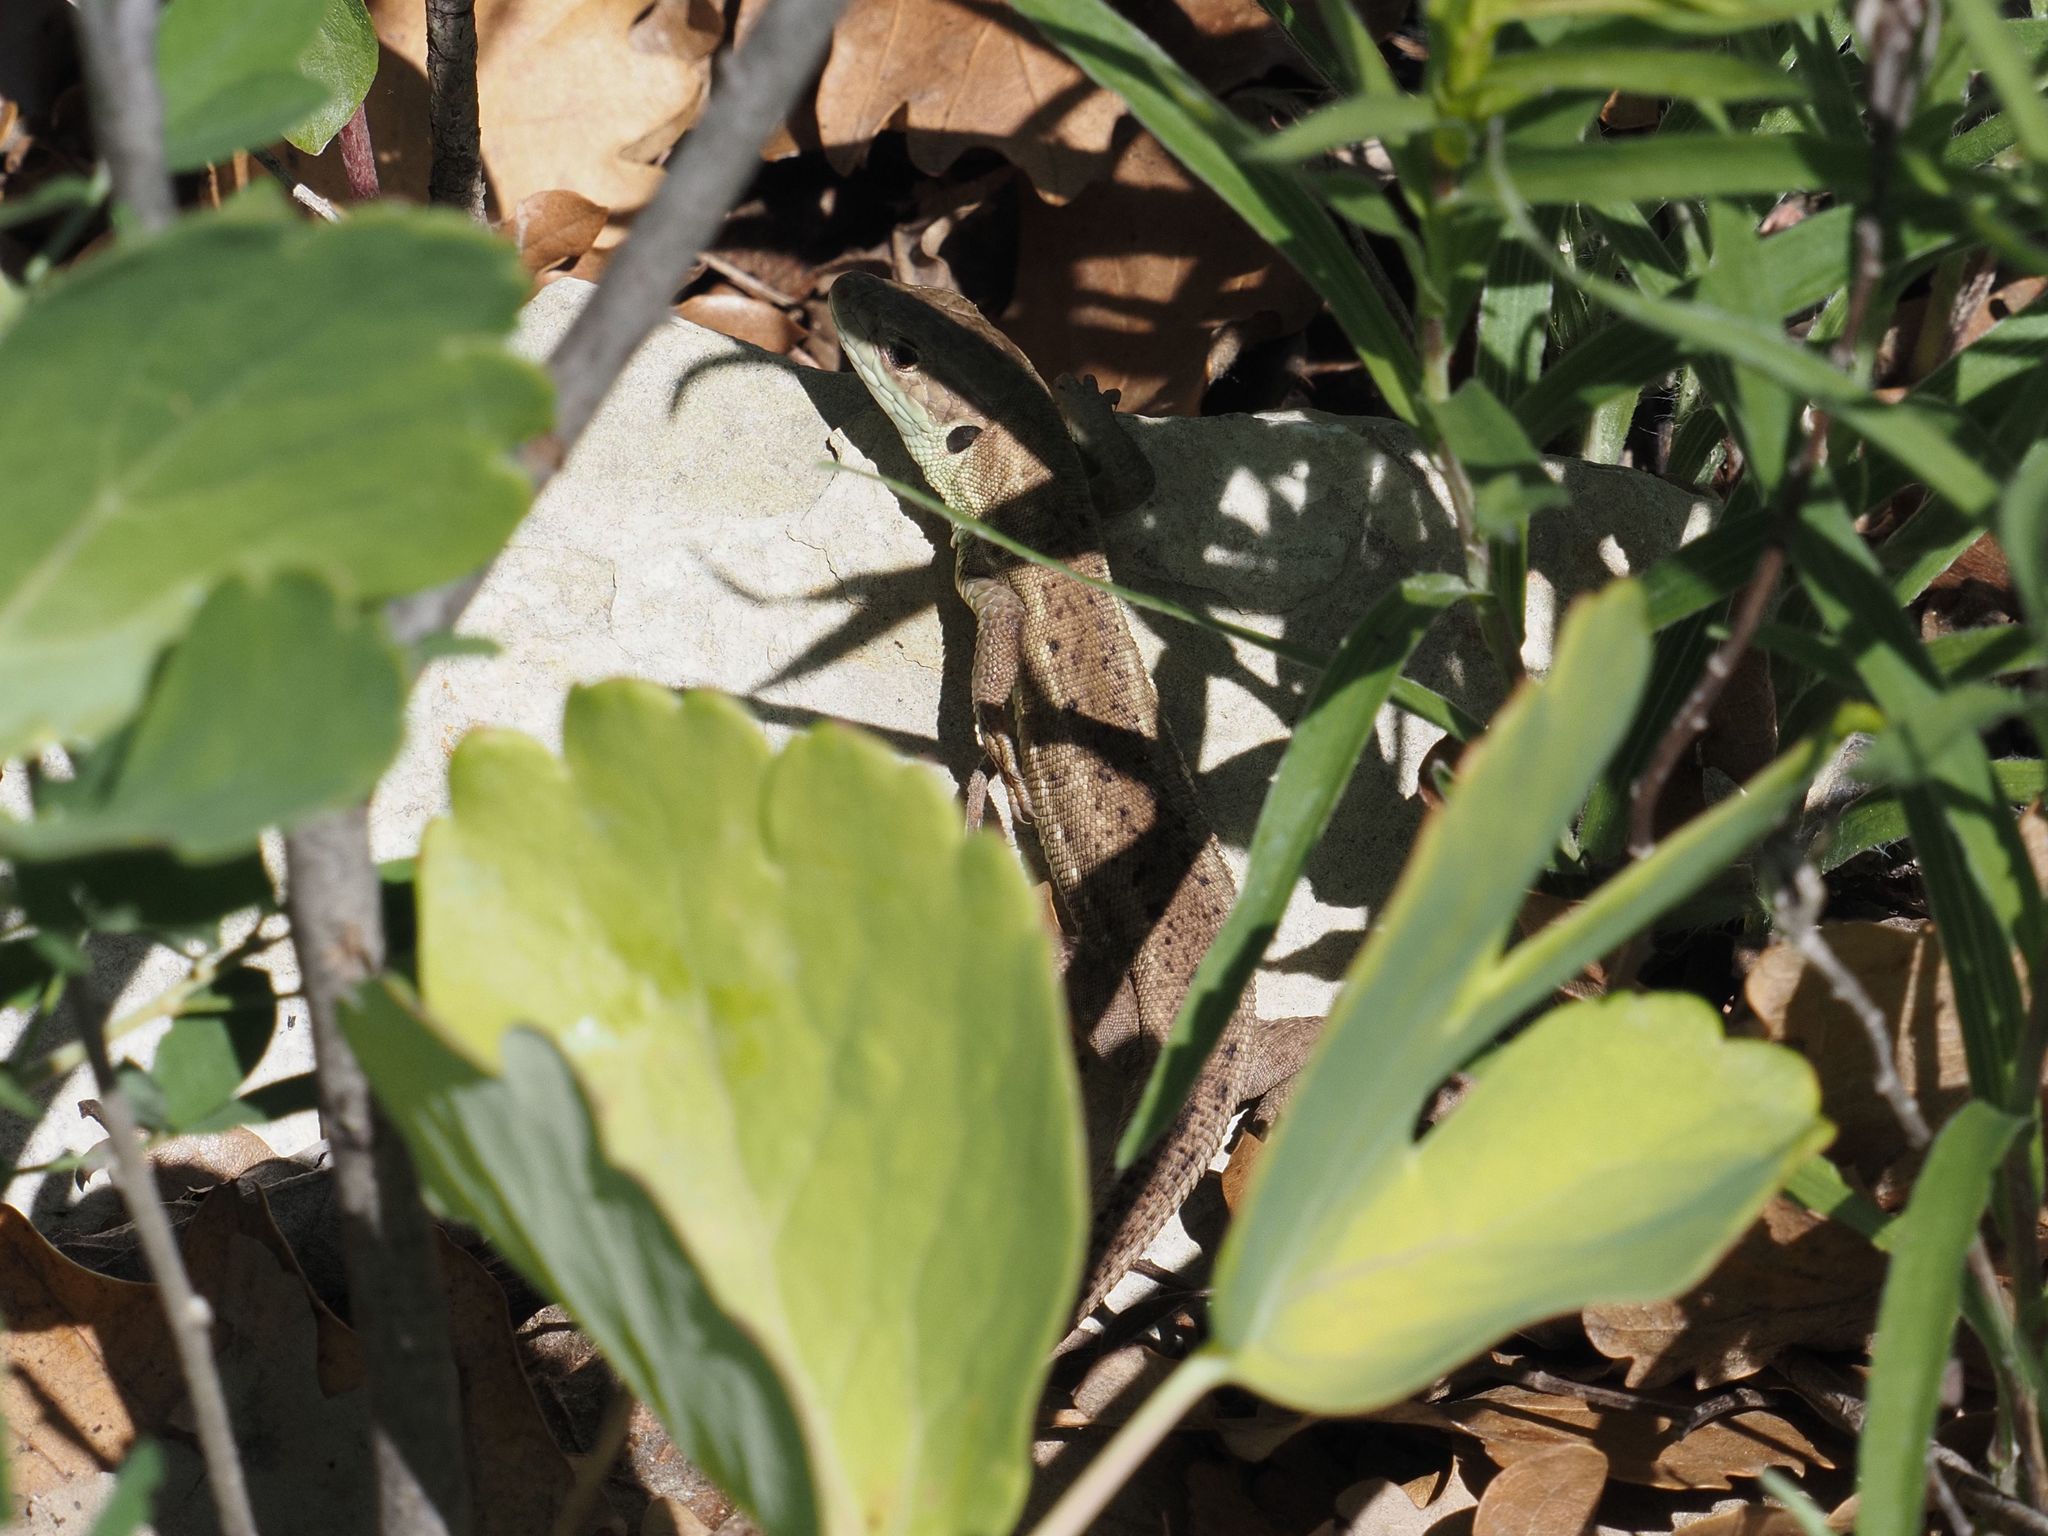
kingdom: Animalia
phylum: Chordata
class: Squamata
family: Lacertidae
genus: Lacerta
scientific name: Lacerta viridis
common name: European green lizard
